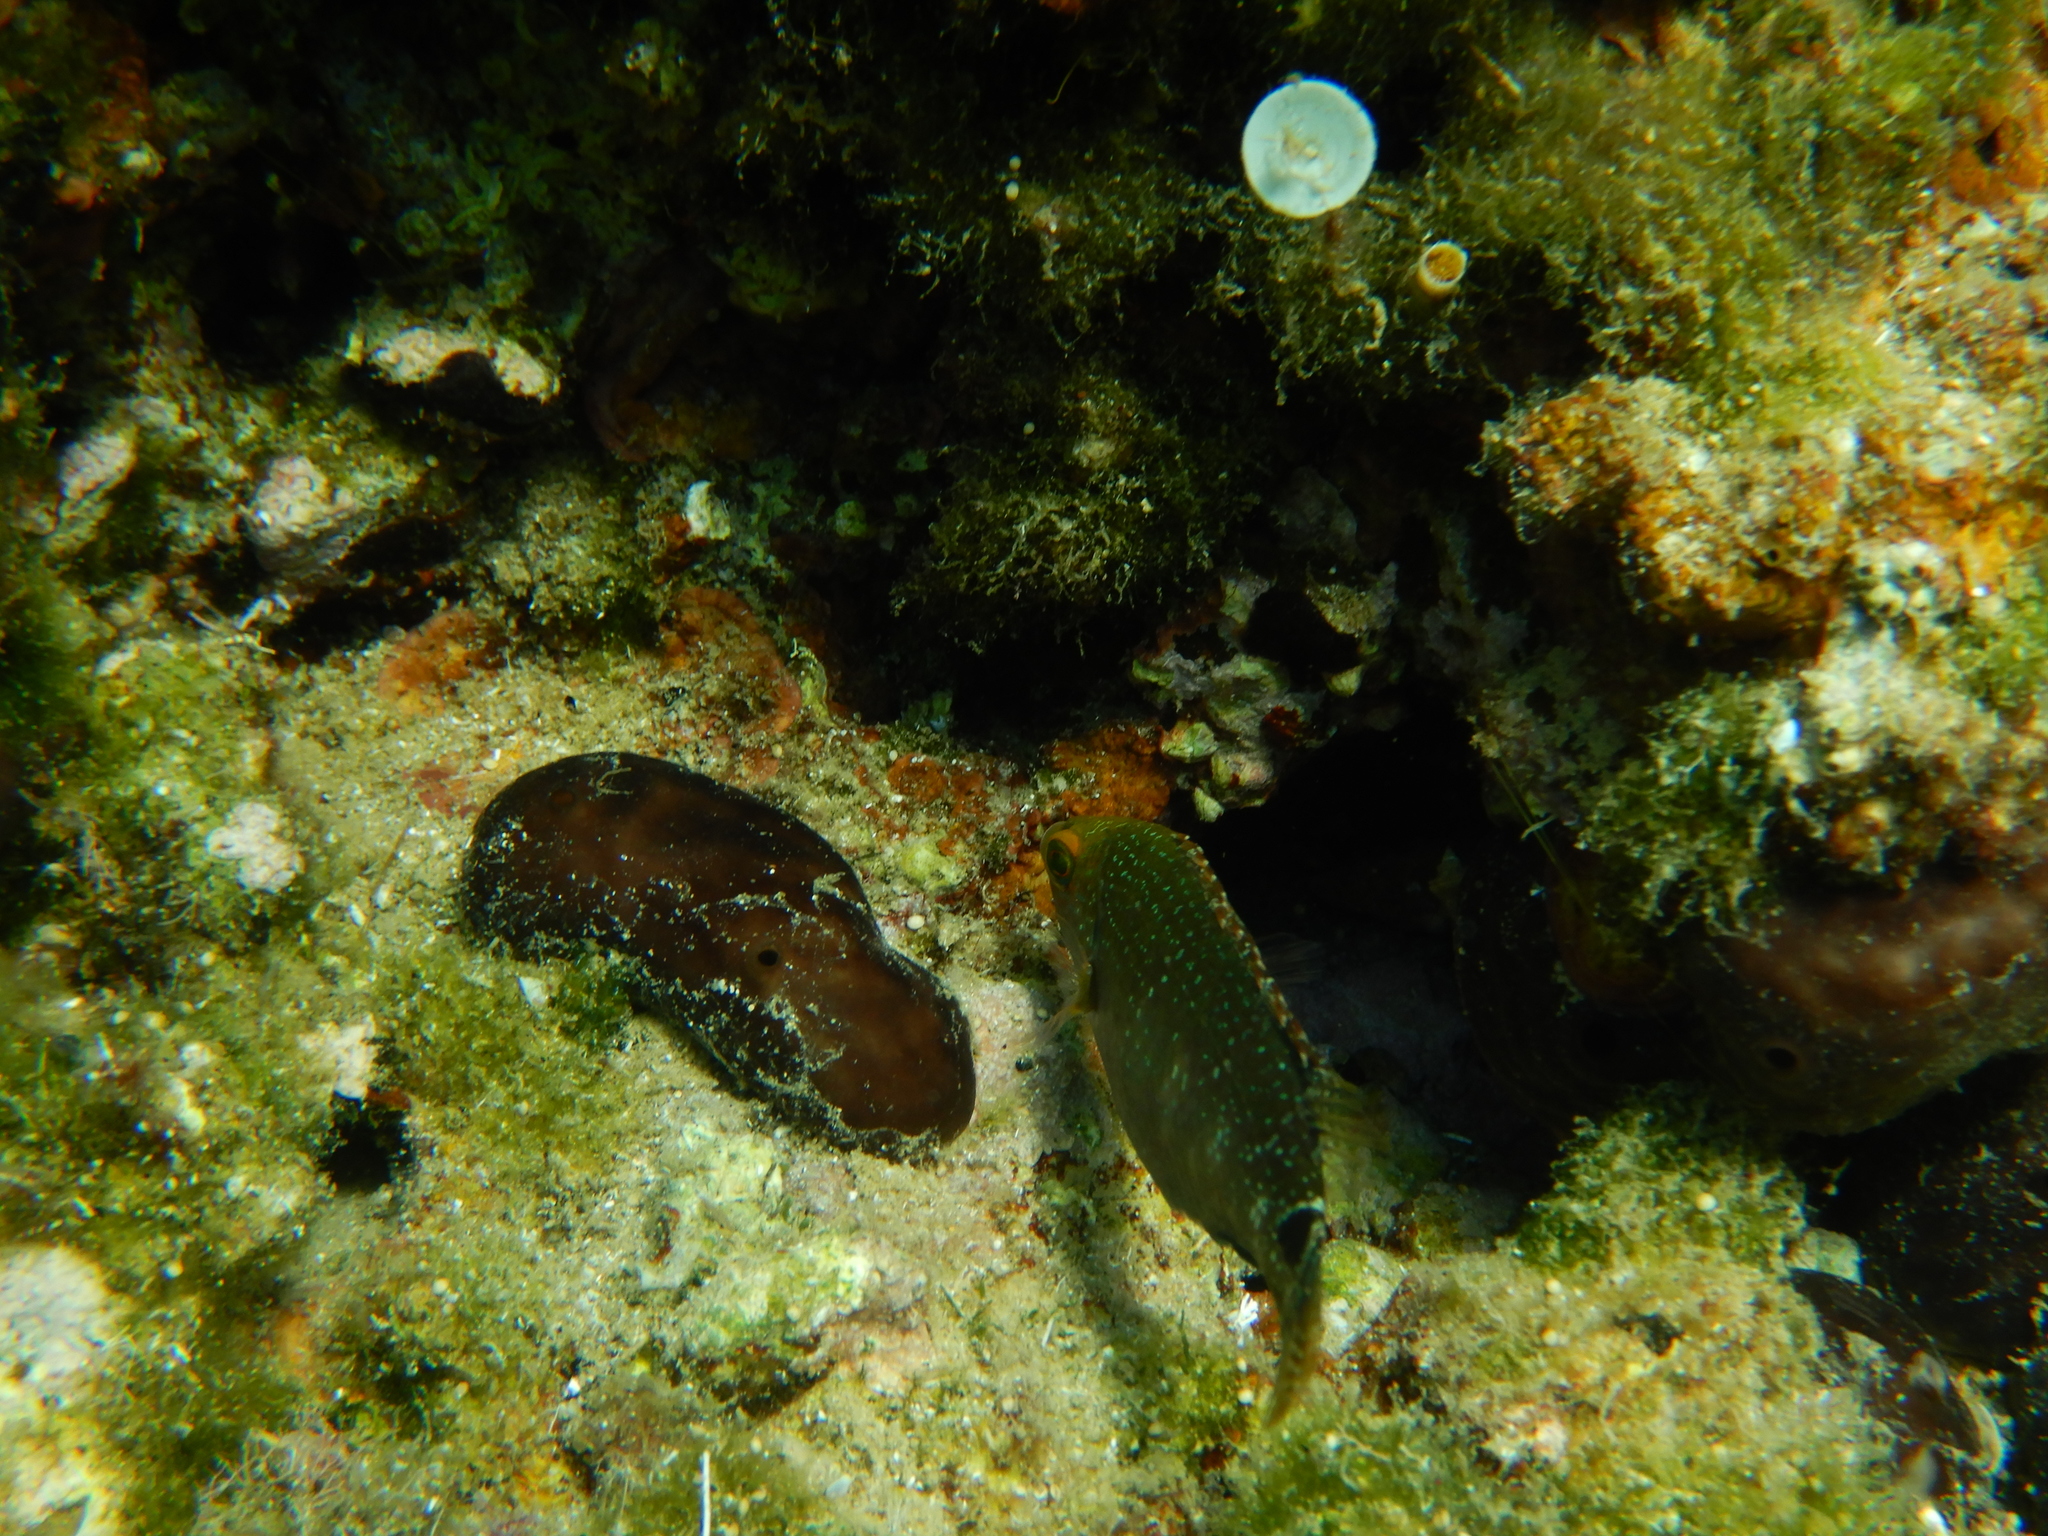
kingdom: Animalia
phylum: Chordata
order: Perciformes
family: Labridae
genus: Symphodus
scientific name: Symphodus mediterraneus
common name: Axillary wrasse
